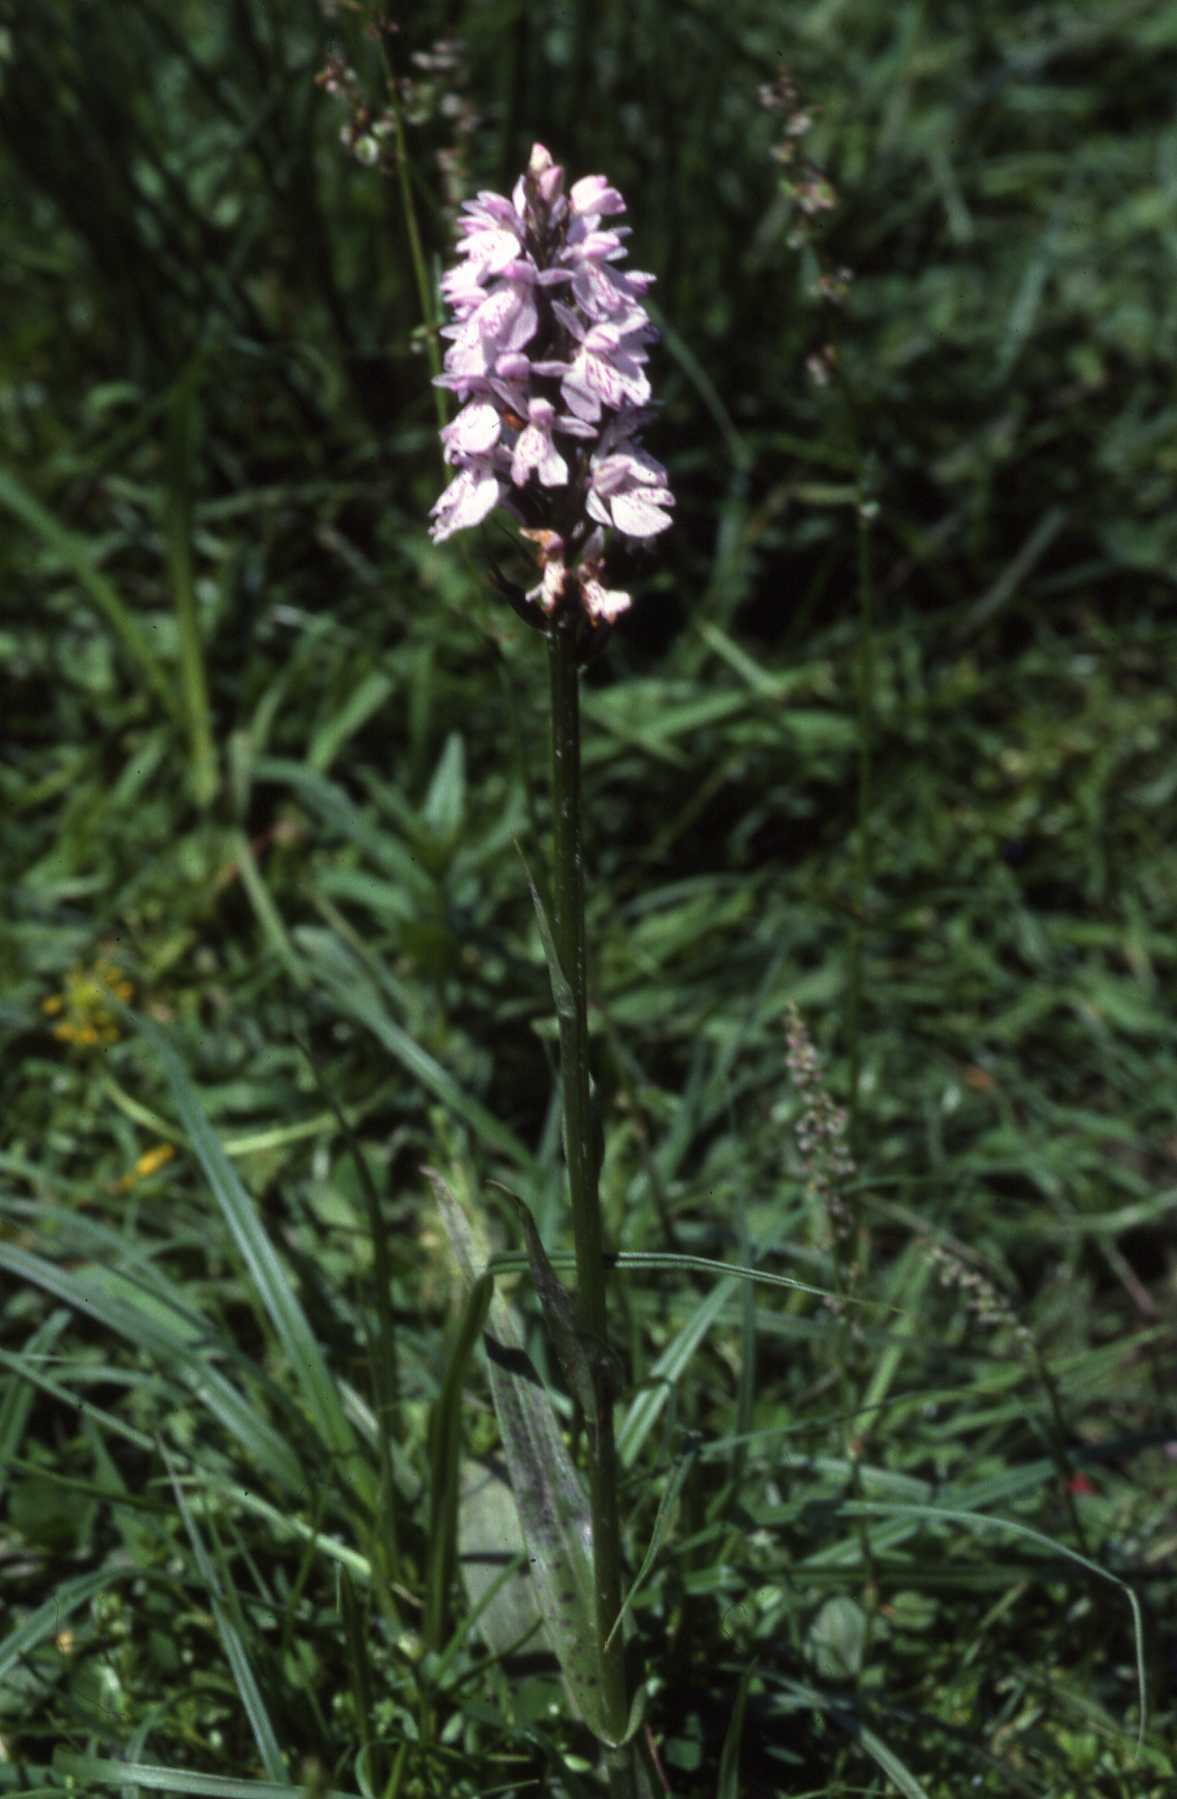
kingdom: Plantae
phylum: Tracheophyta
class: Liliopsida
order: Asparagales
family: Orchidaceae
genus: Dactylorhiza
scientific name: Dactylorhiza maculata
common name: Heath spotted-orchid
